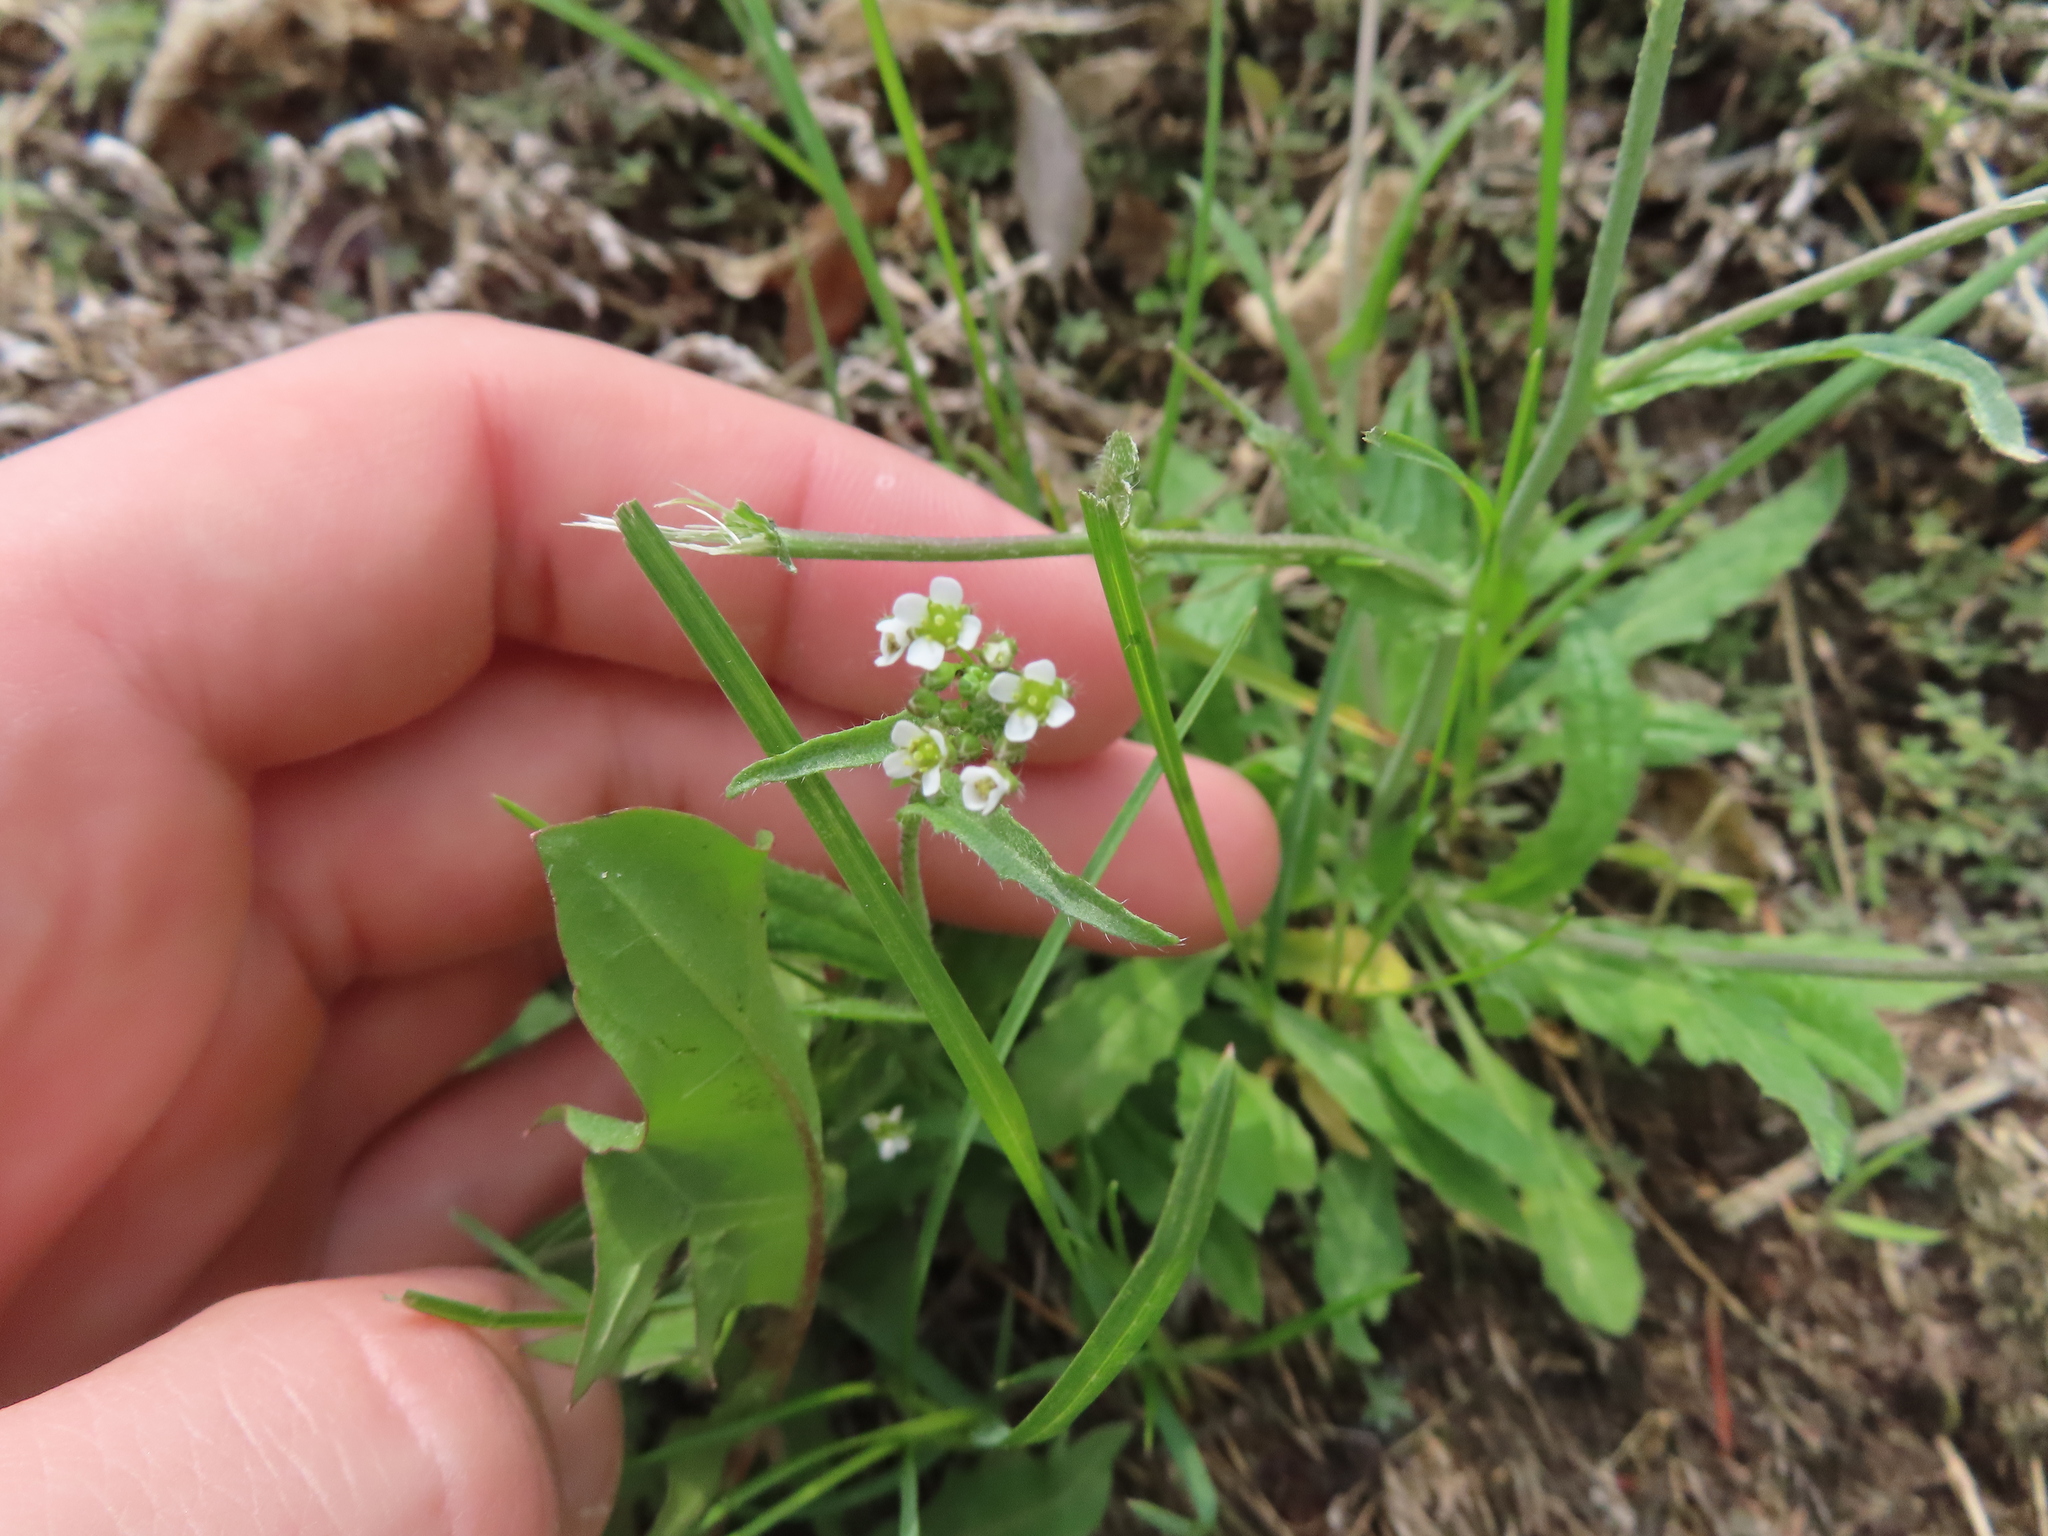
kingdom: Plantae
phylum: Tracheophyta
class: Magnoliopsida
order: Brassicales
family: Brassicaceae
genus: Capsella
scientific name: Capsella bursa-pastoris
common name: Shepherd's purse
